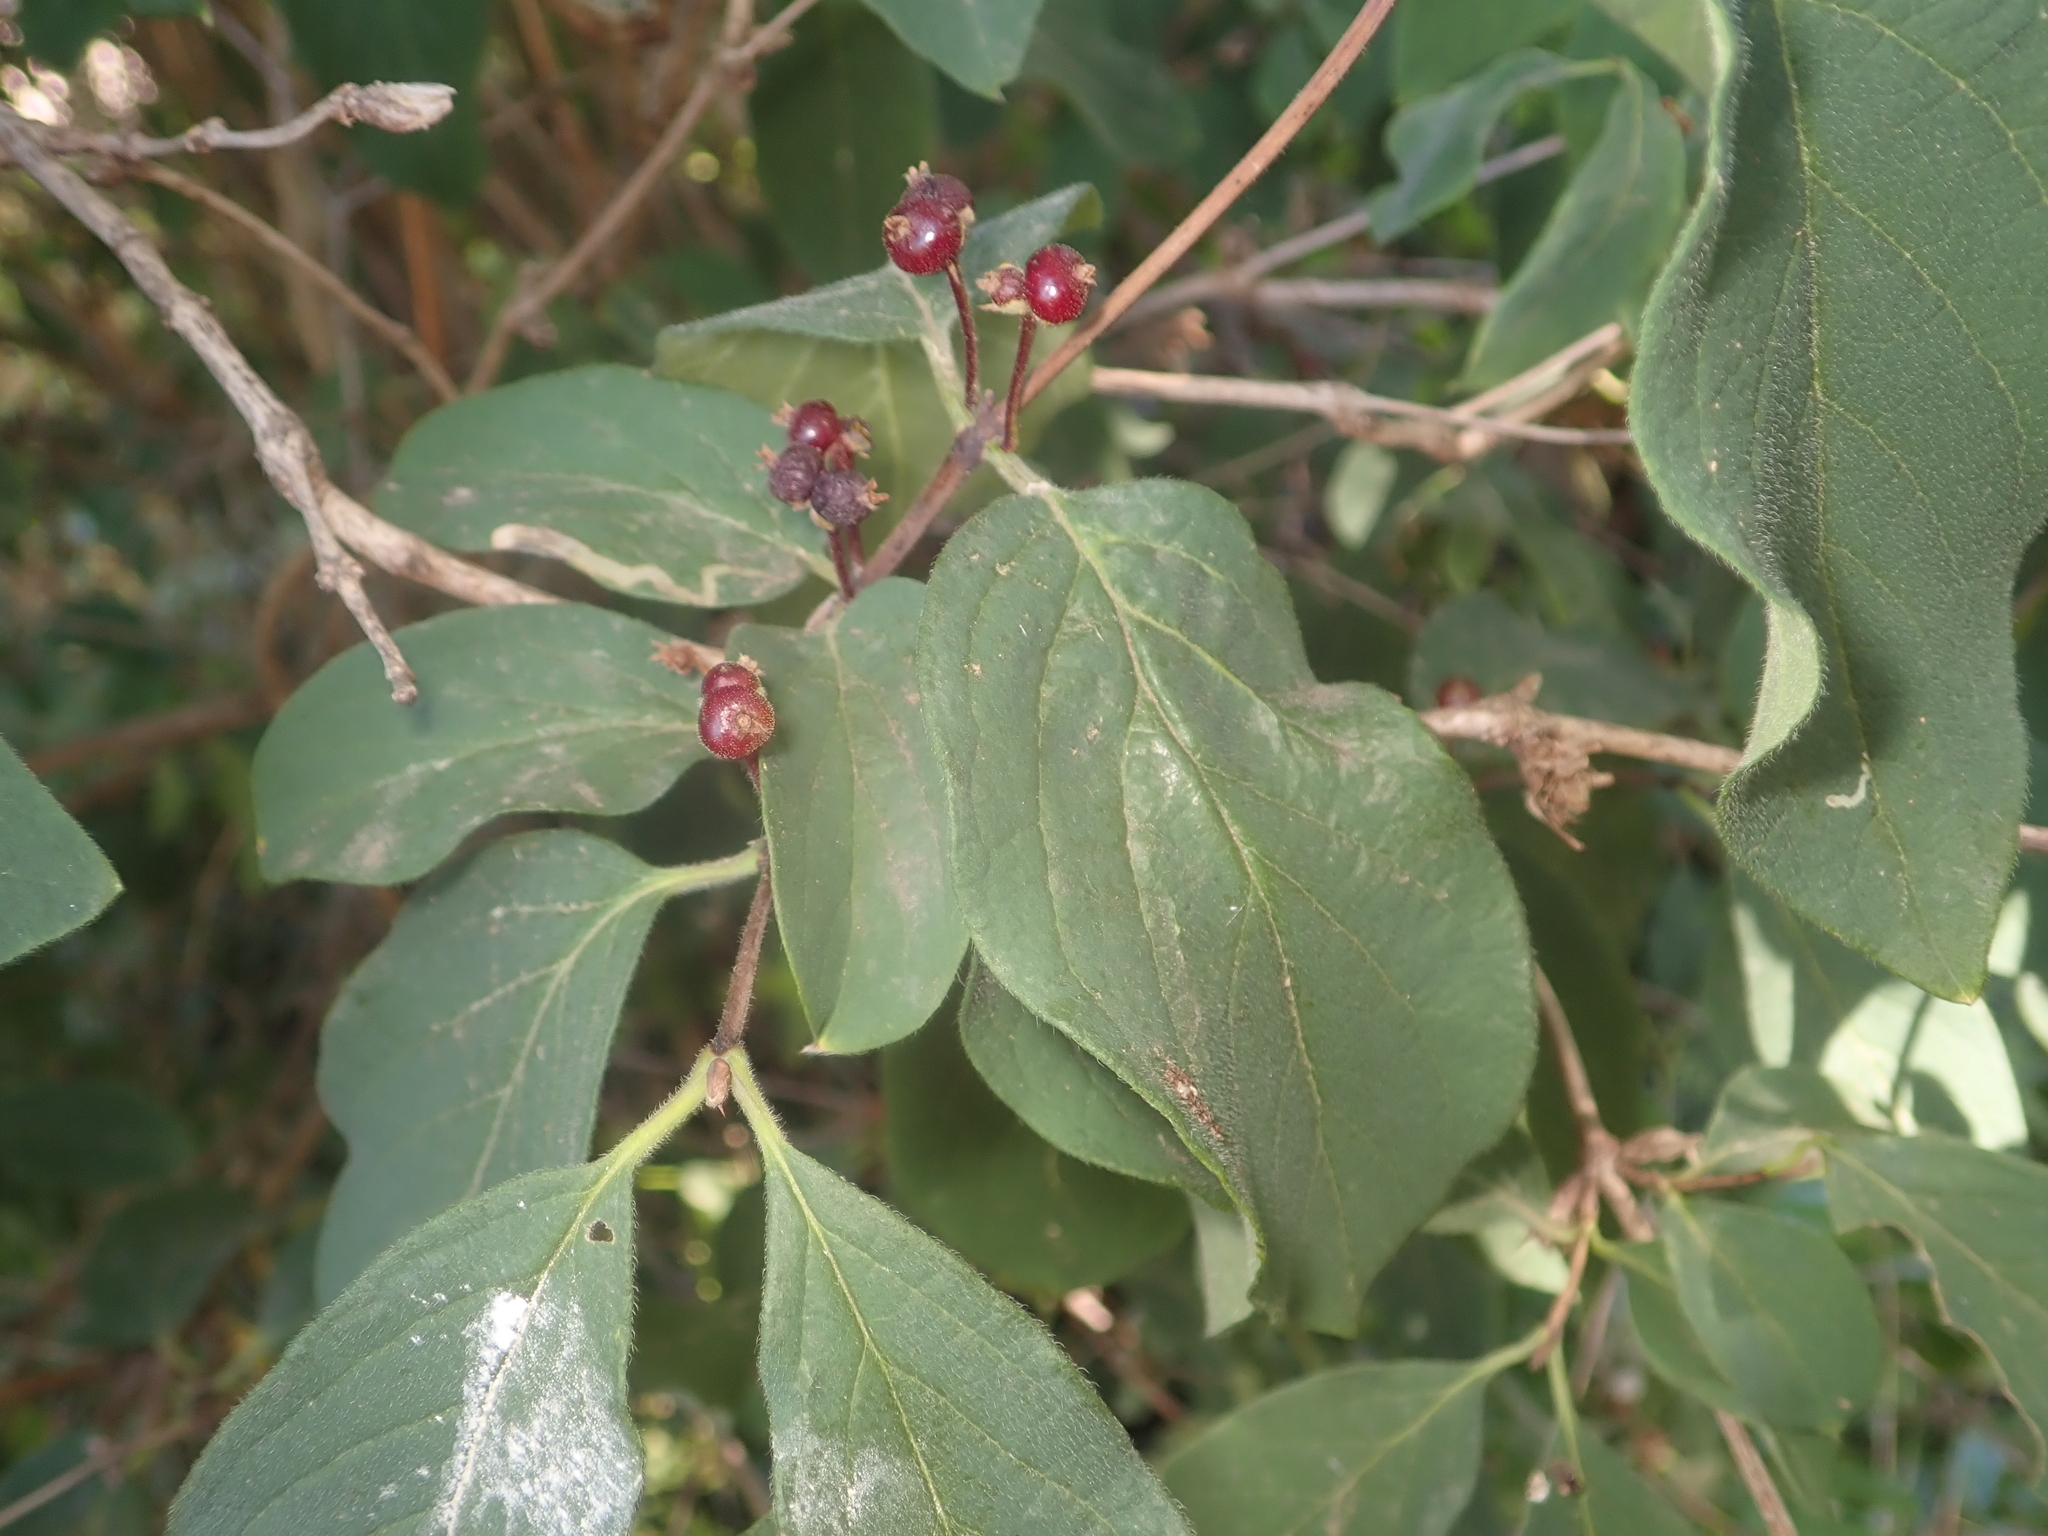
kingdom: Plantae
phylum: Tracheophyta
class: Magnoliopsida
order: Dipsacales
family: Caprifoliaceae
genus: Lonicera
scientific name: Lonicera xylosteum
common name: Fly honeysuckle
